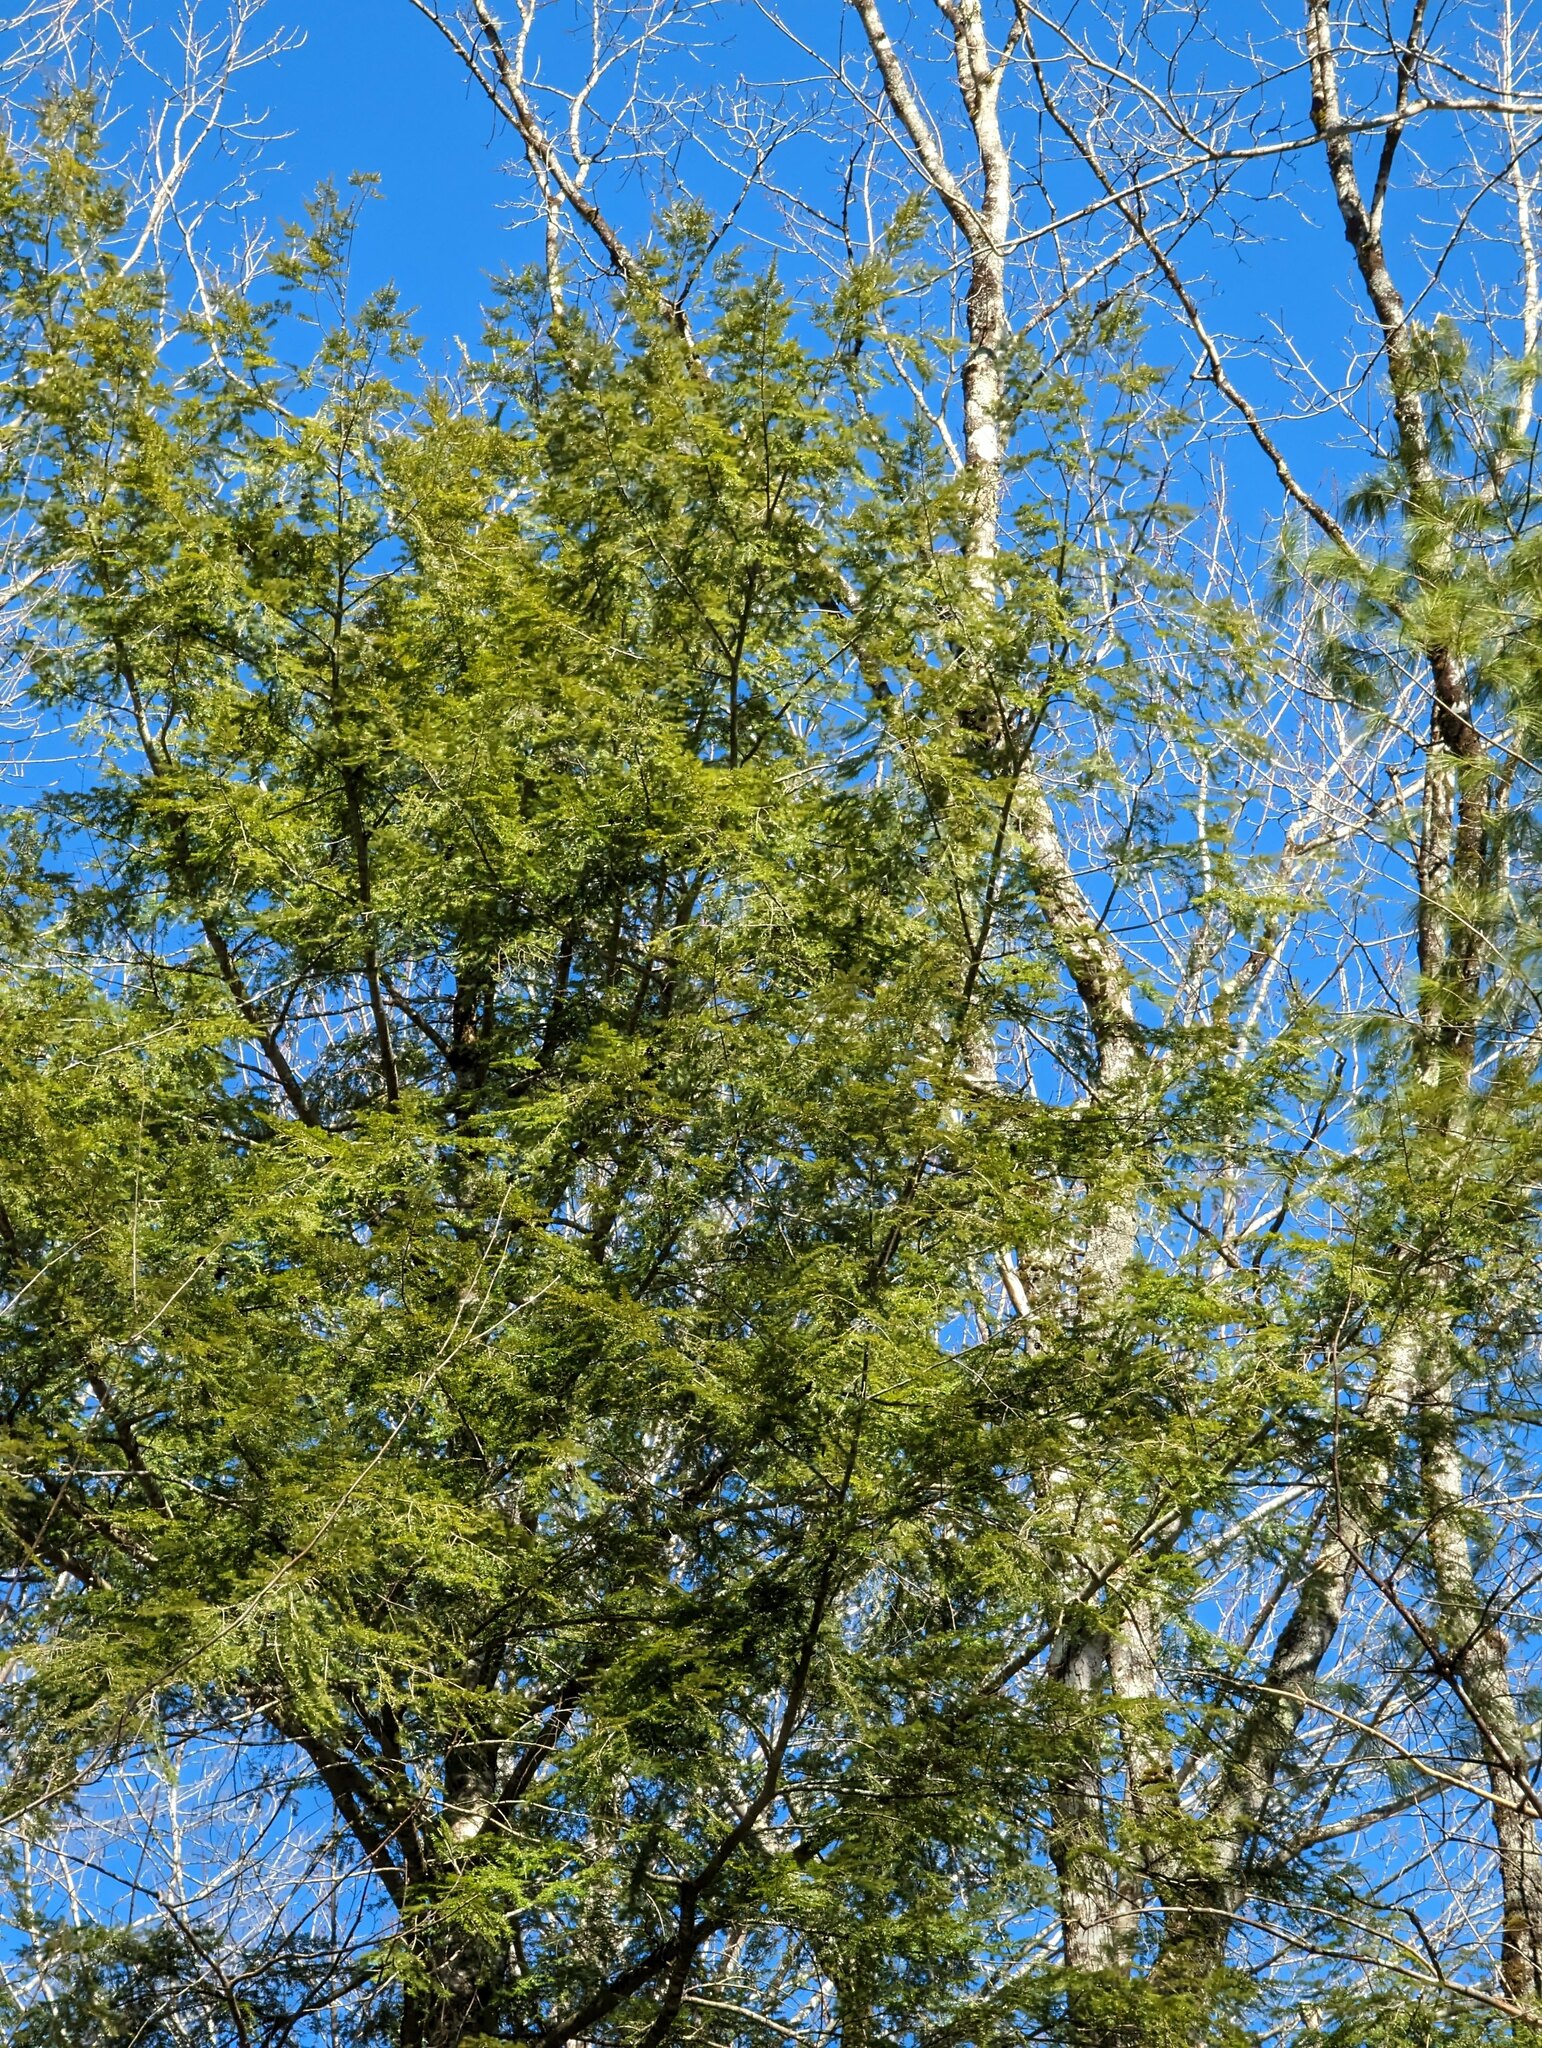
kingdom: Plantae
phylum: Tracheophyta
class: Pinopsida
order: Pinales
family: Pinaceae
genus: Tsuga
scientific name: Tsuga canadensis
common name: Eastern hemlock
